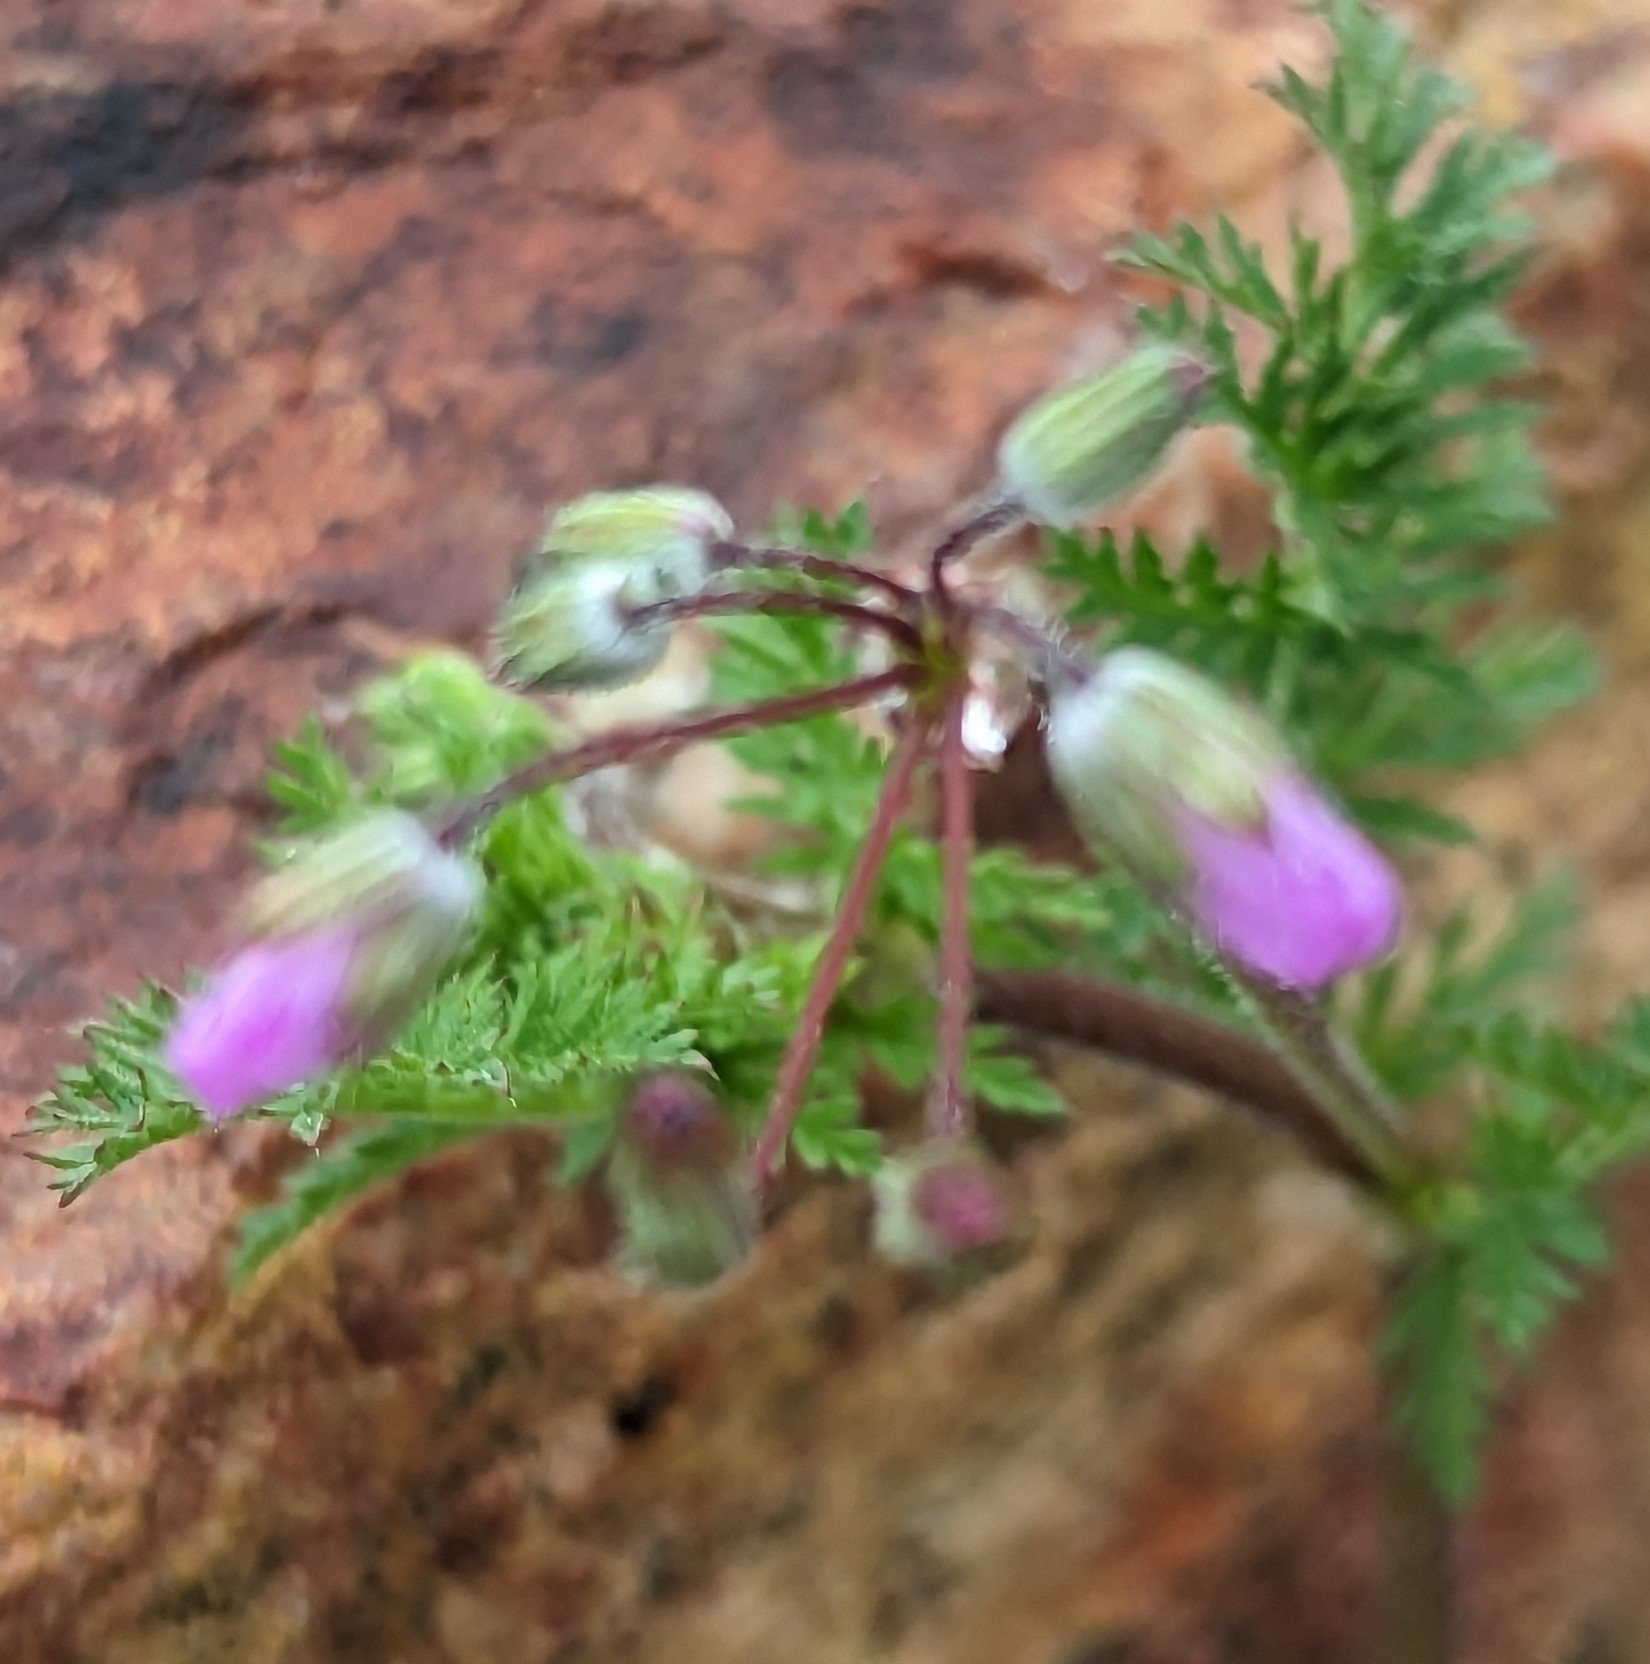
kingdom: Plantae
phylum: Tracheophyta
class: Magnoliopsida
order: Geraniales
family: Geraniaceae
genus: Erodium
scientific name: Erodium cicutarium
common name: Common stork's-bill
